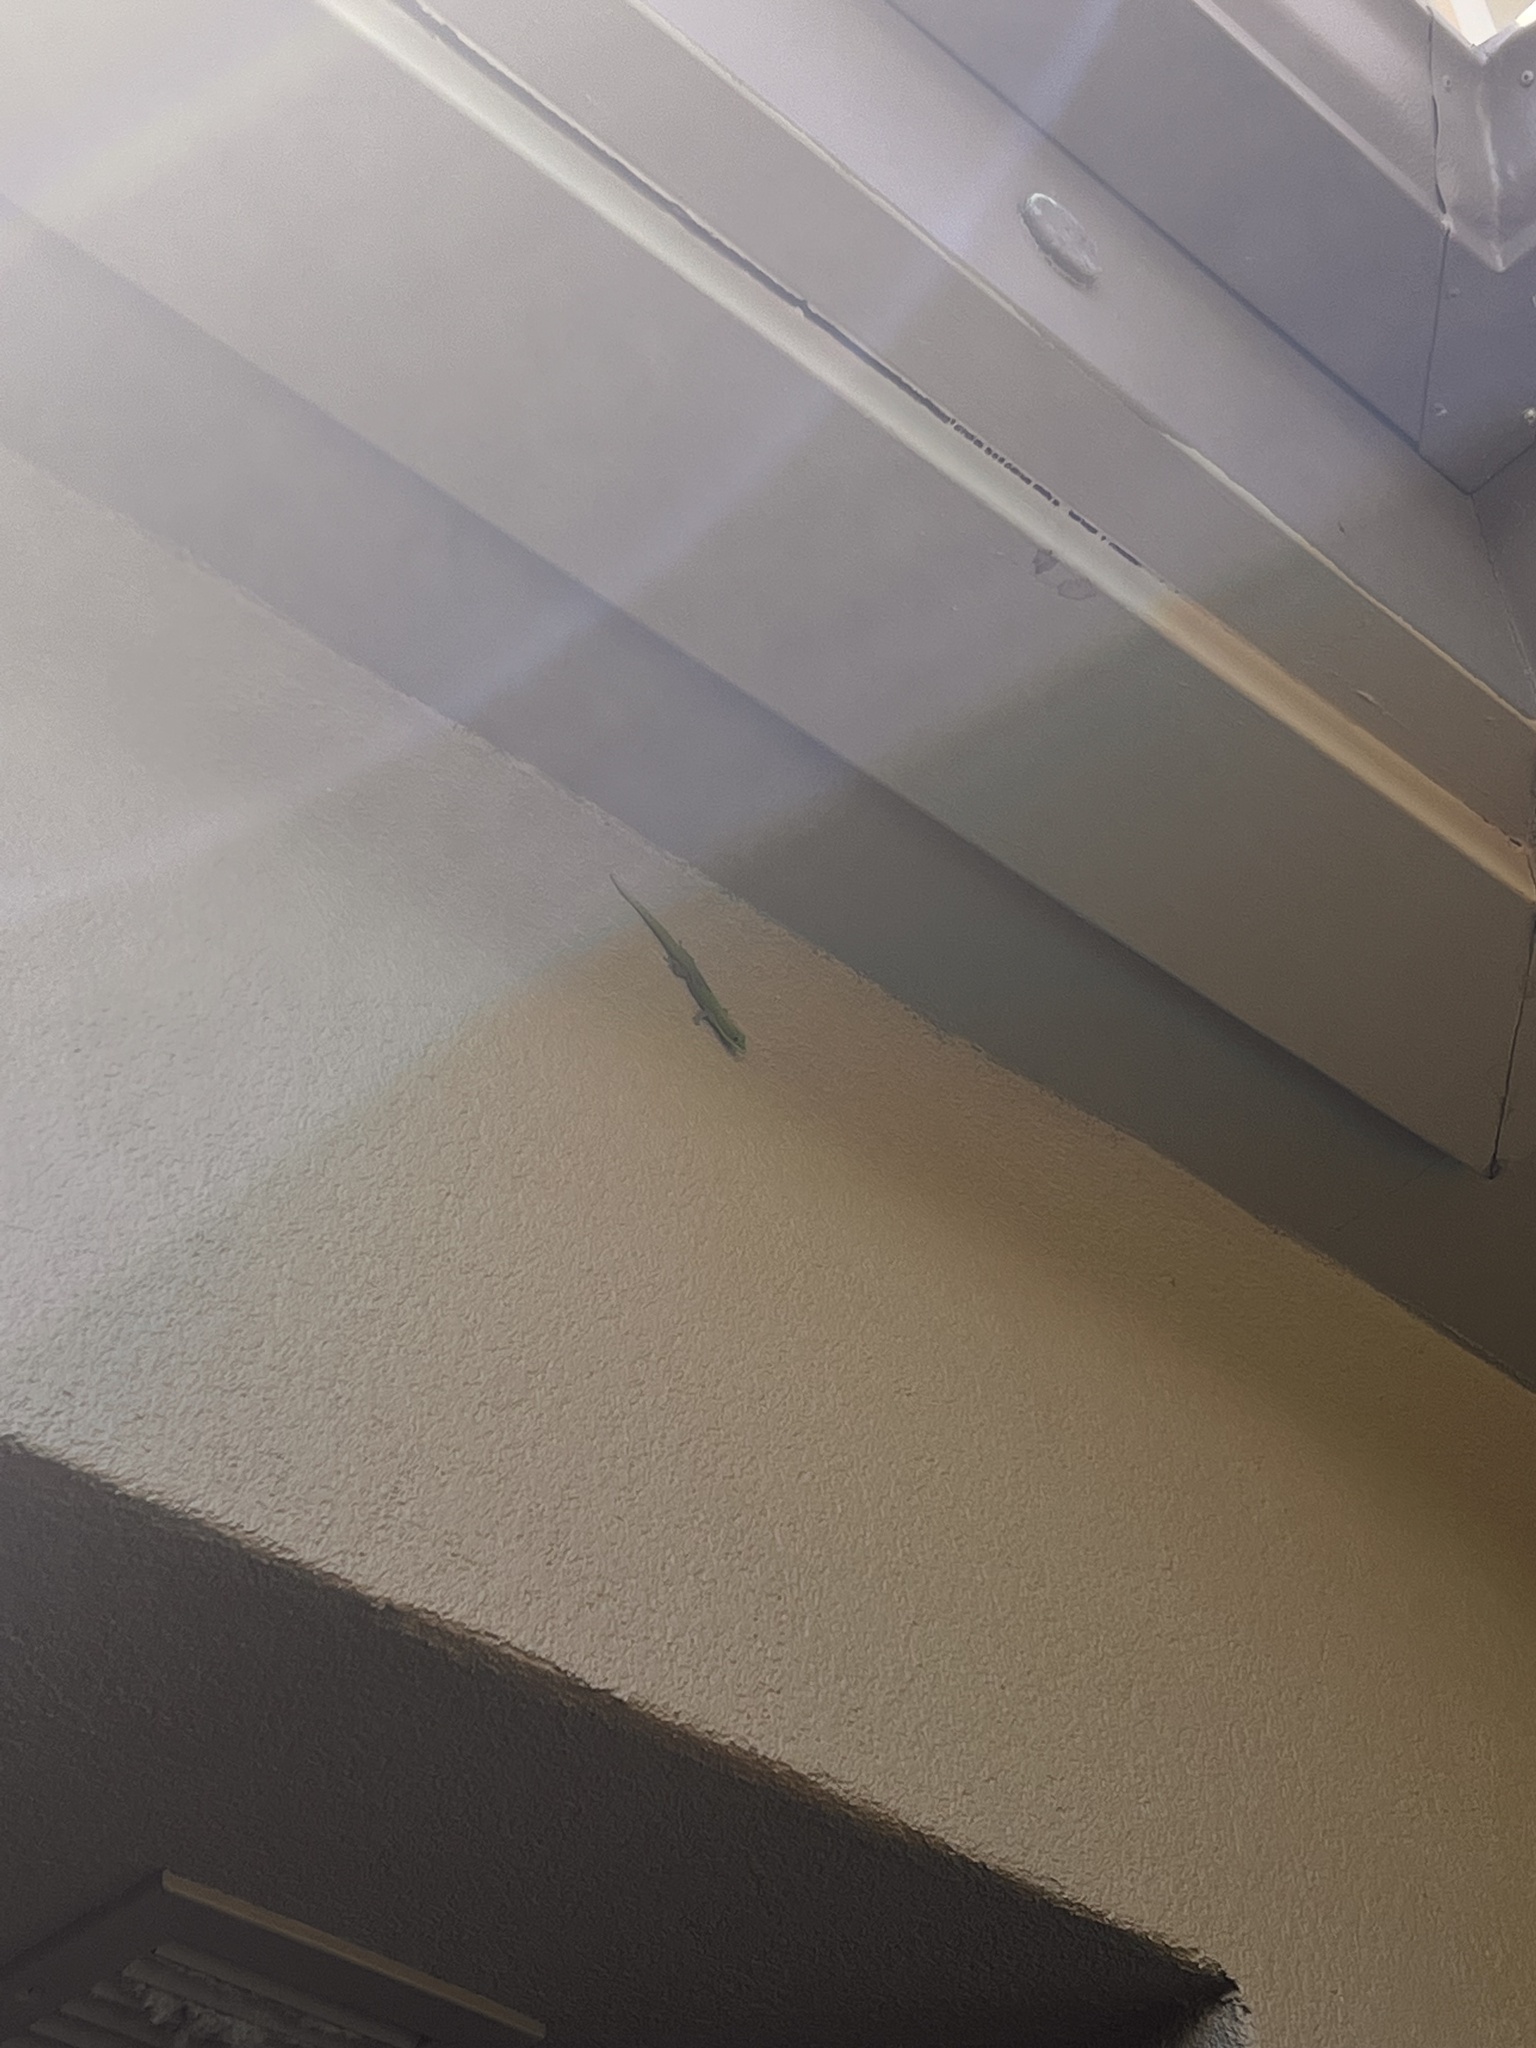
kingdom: Animalia
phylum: Chordata
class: Squamata
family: Gekkonidae
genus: Phelsuma
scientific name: Phelsuma laticauda
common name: Gold dust day gecko
